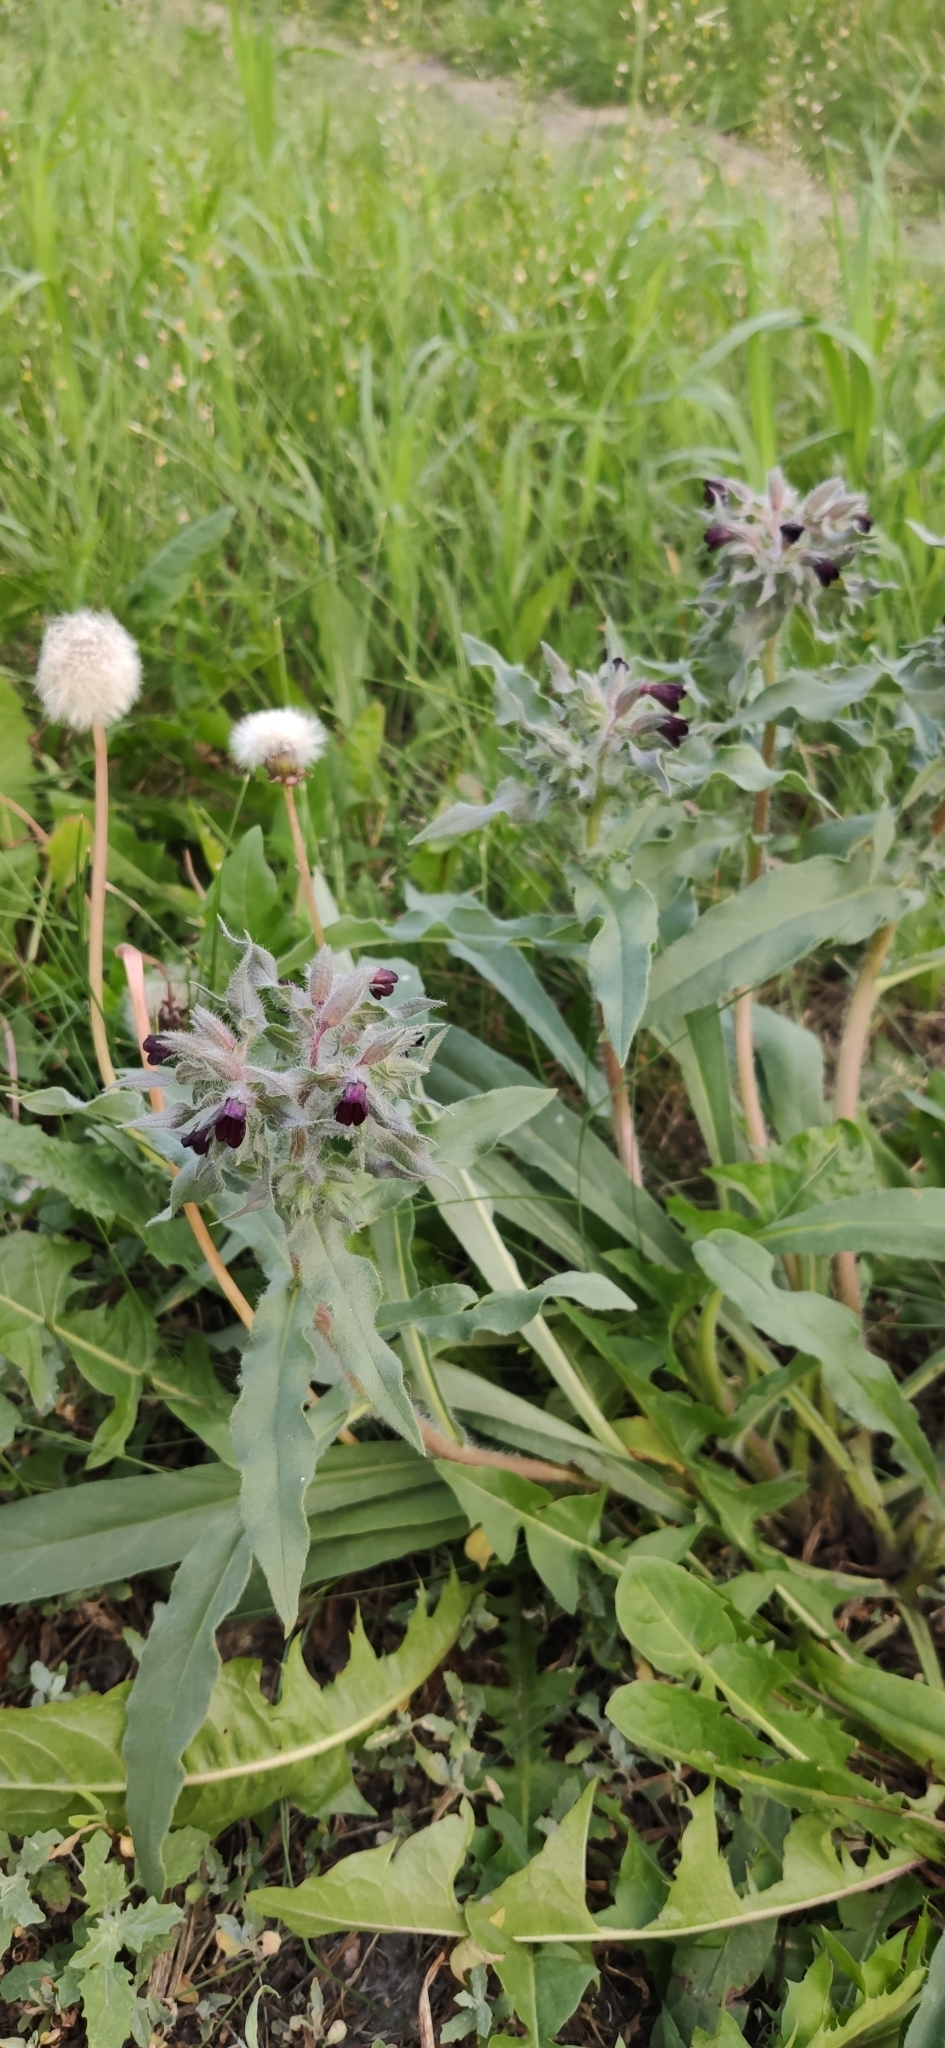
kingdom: Plantae
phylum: Tracheophyta
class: Magnoliopsida
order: Boraginales
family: Boraginaceae
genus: Nonea
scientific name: Nonea pulla
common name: Brown nonea
